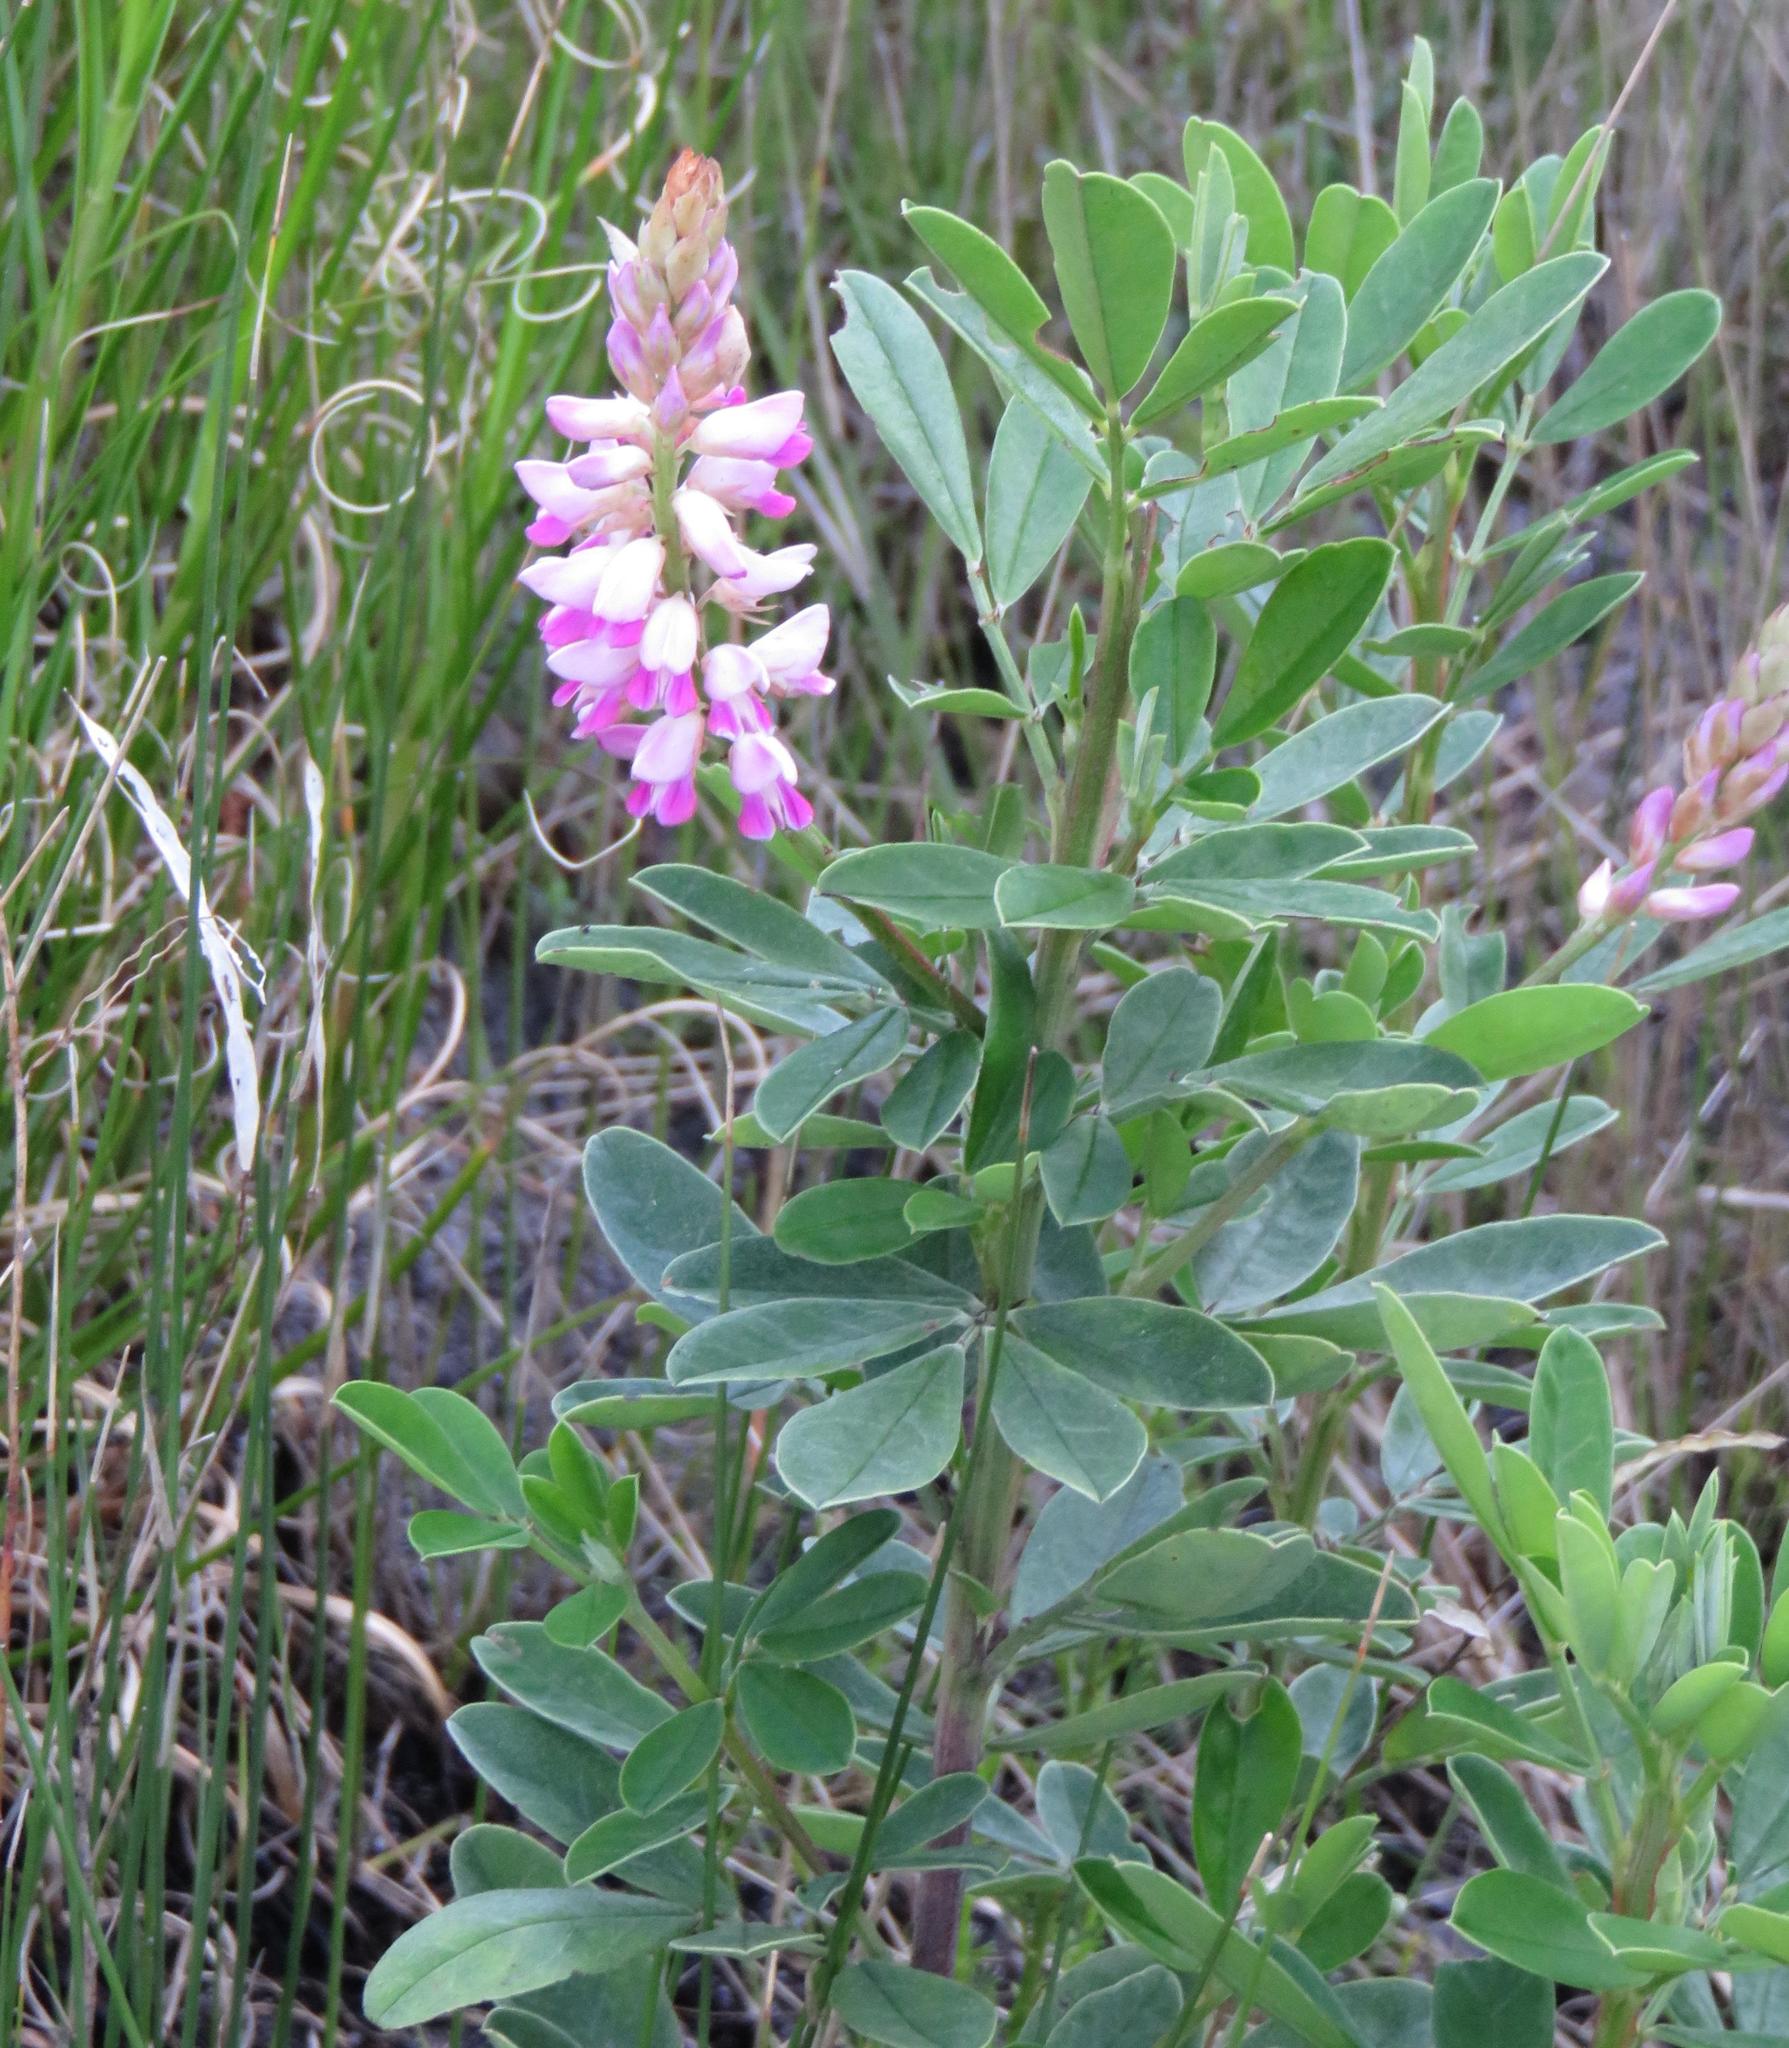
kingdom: Plantae
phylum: Tracheophyta
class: Magnoliopsida
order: Fabales
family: Fabaceae
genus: Indigofera
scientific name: Indigofera cytisoides
